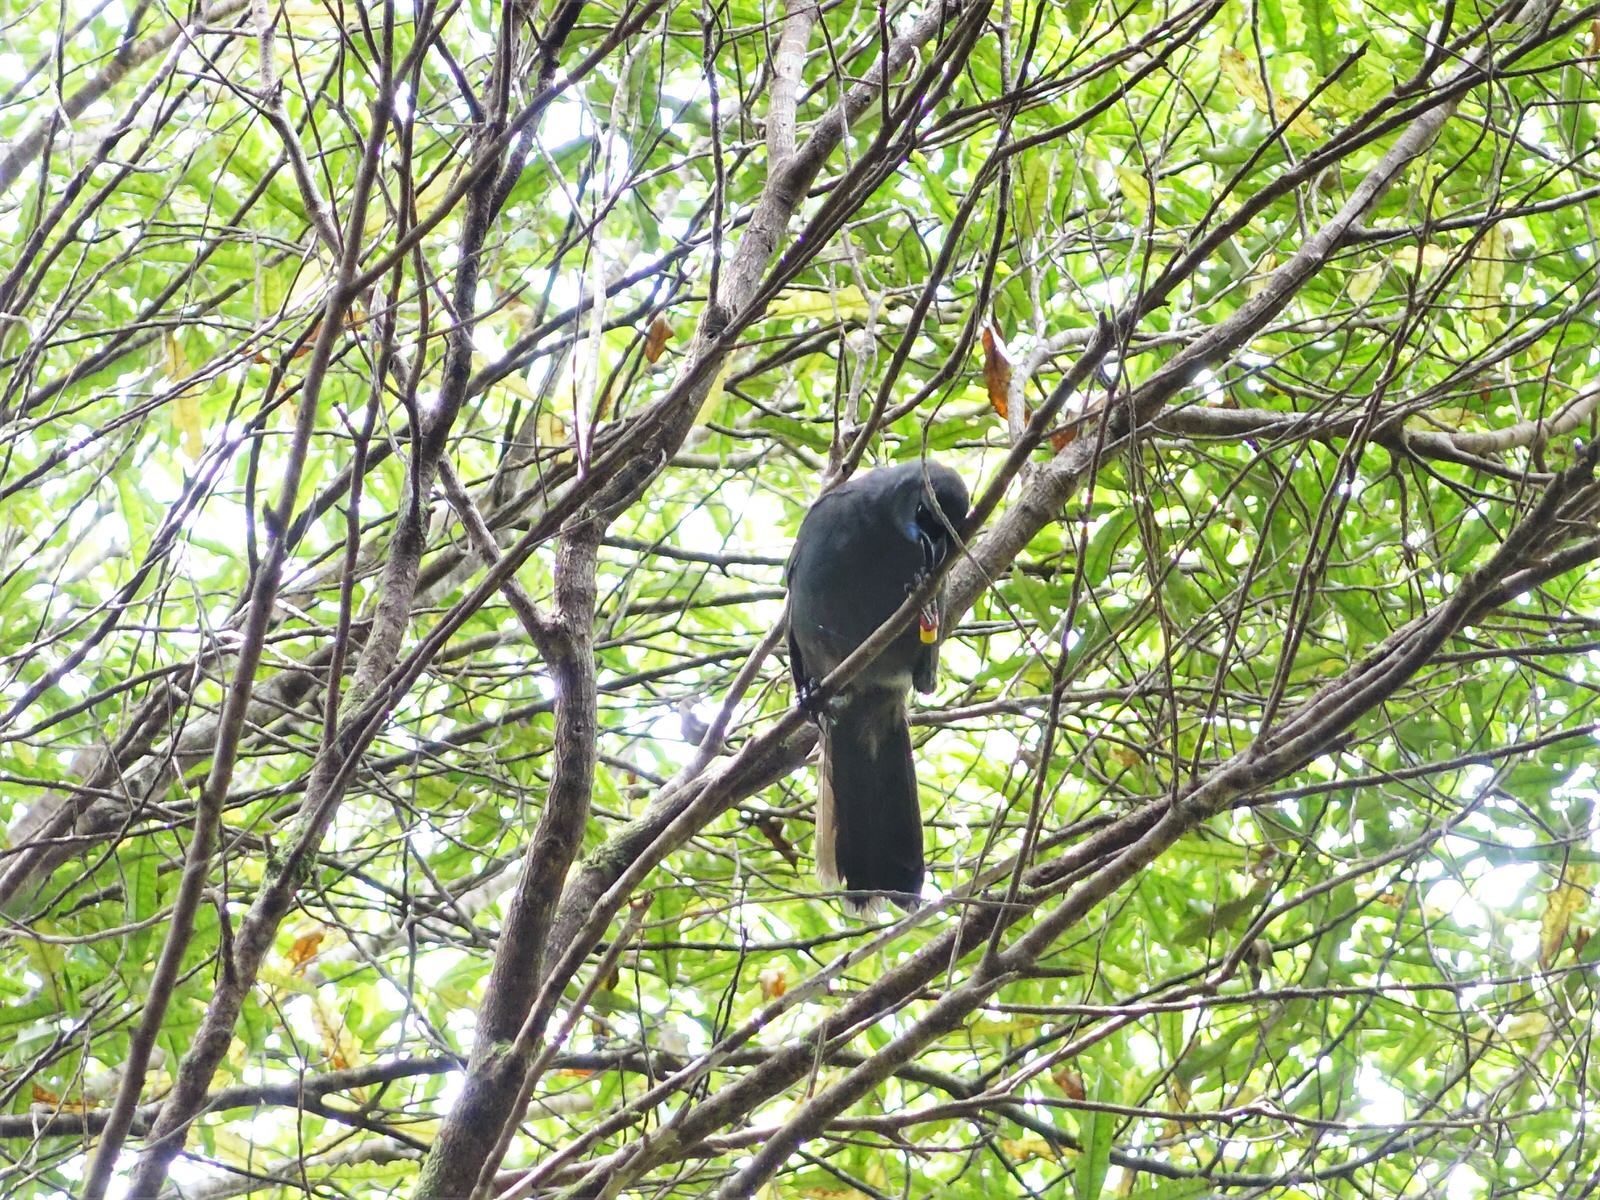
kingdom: Animalia
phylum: Chordata
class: Aves
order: Passeriformes
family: Callaeatidae
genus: Callaeas
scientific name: Callaeas cinereus
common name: South island kokako
